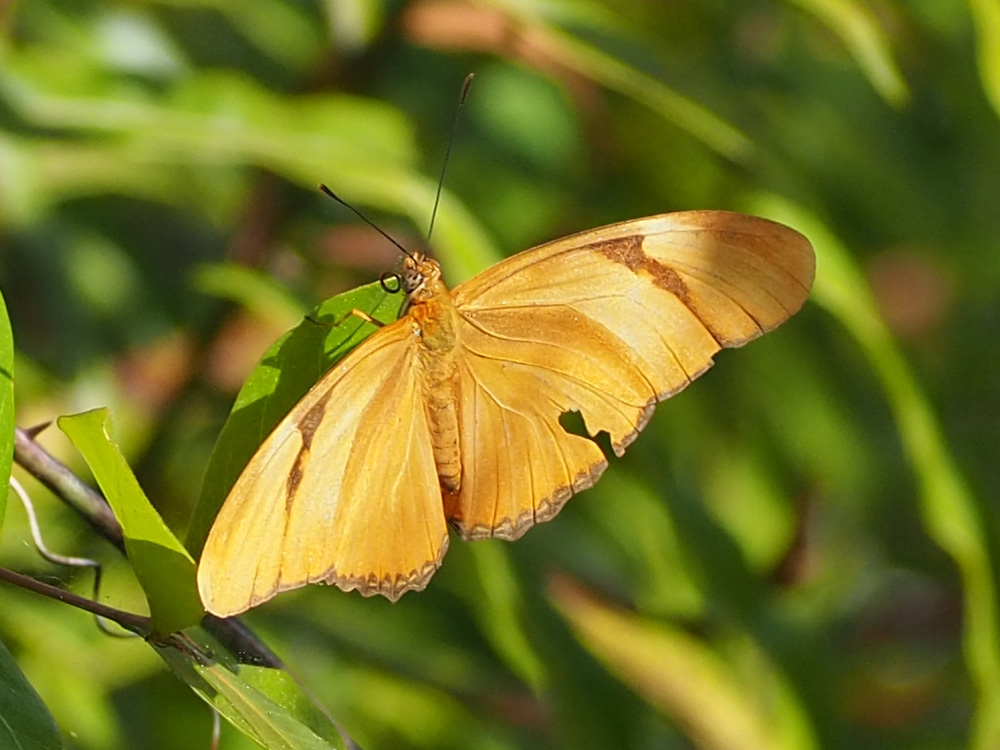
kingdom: Animalia
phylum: Arthropoda
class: Insecta
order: Lepidoptera
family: Nymphalidae
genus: Dryas
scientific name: Dryas iulia
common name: Flambeau
